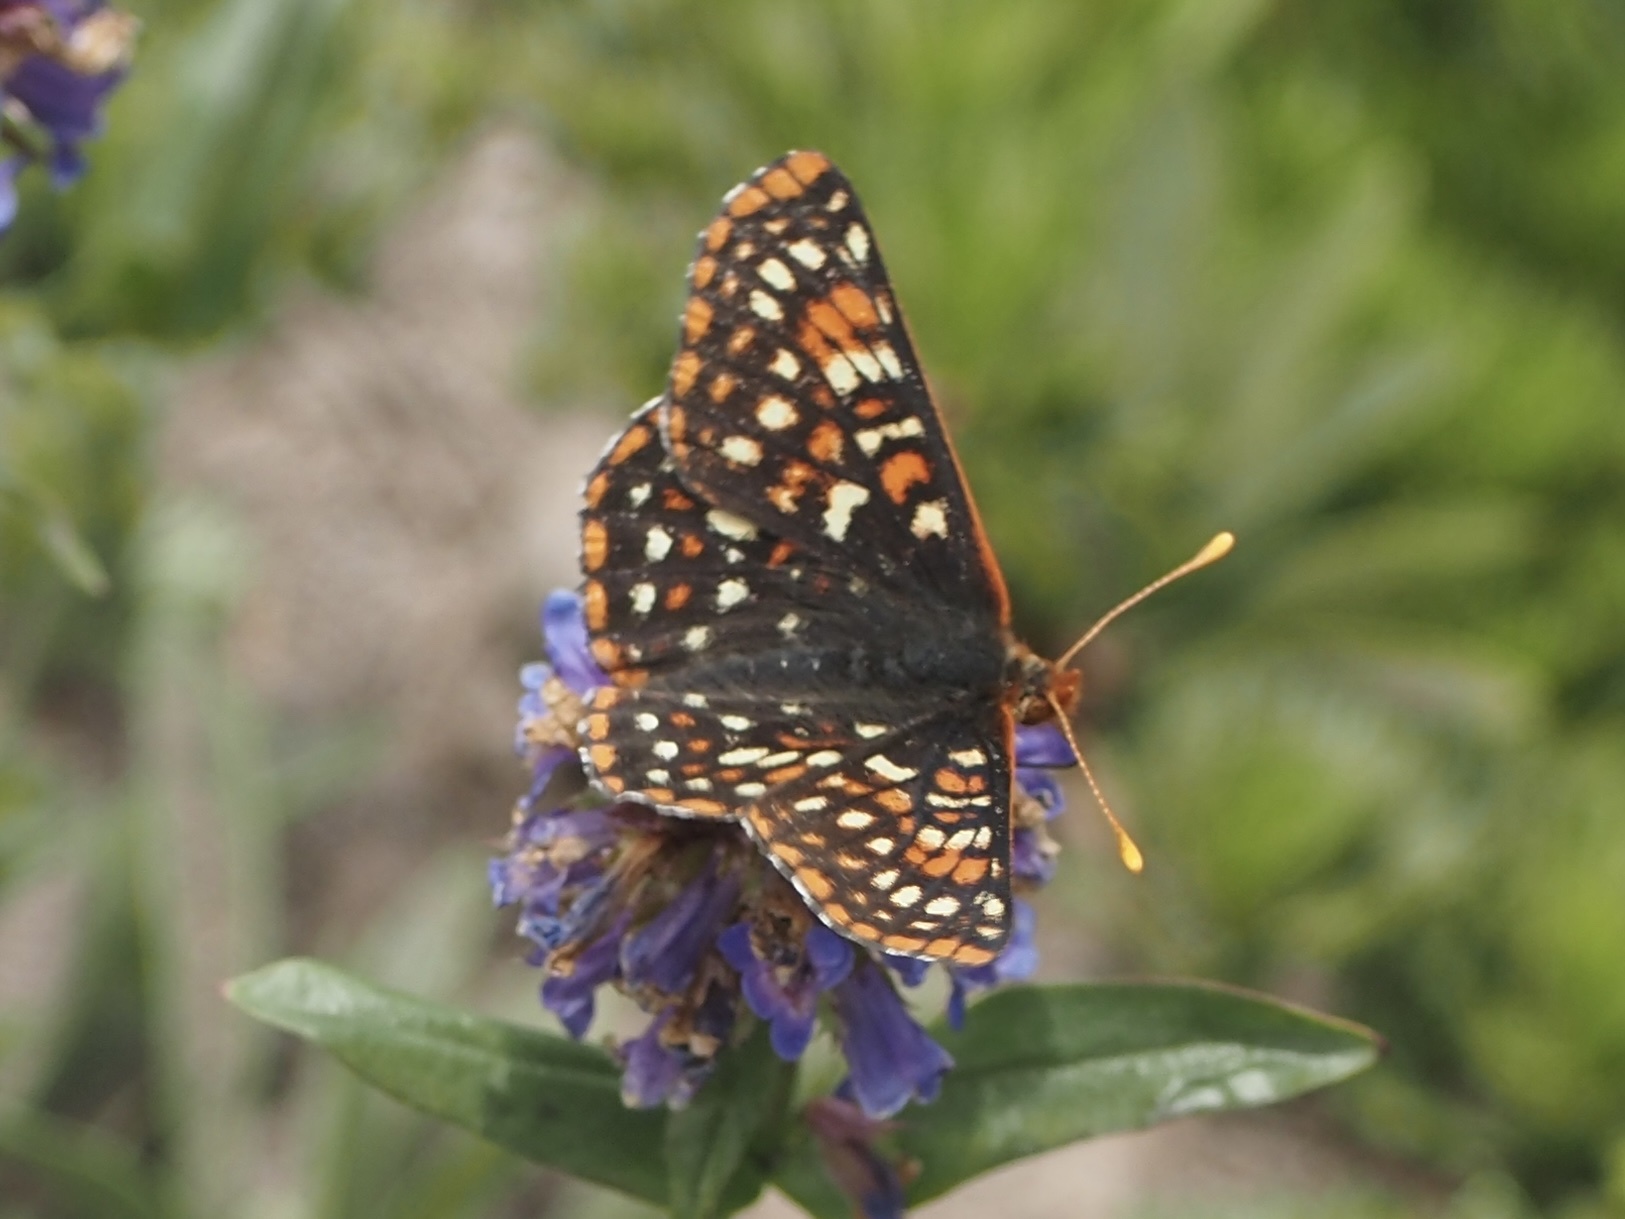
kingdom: Animalia
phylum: Arthropoda
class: Insecta
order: Lepidoptera
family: Nymphalidae
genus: Occidryas
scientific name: Occidryas anicia
